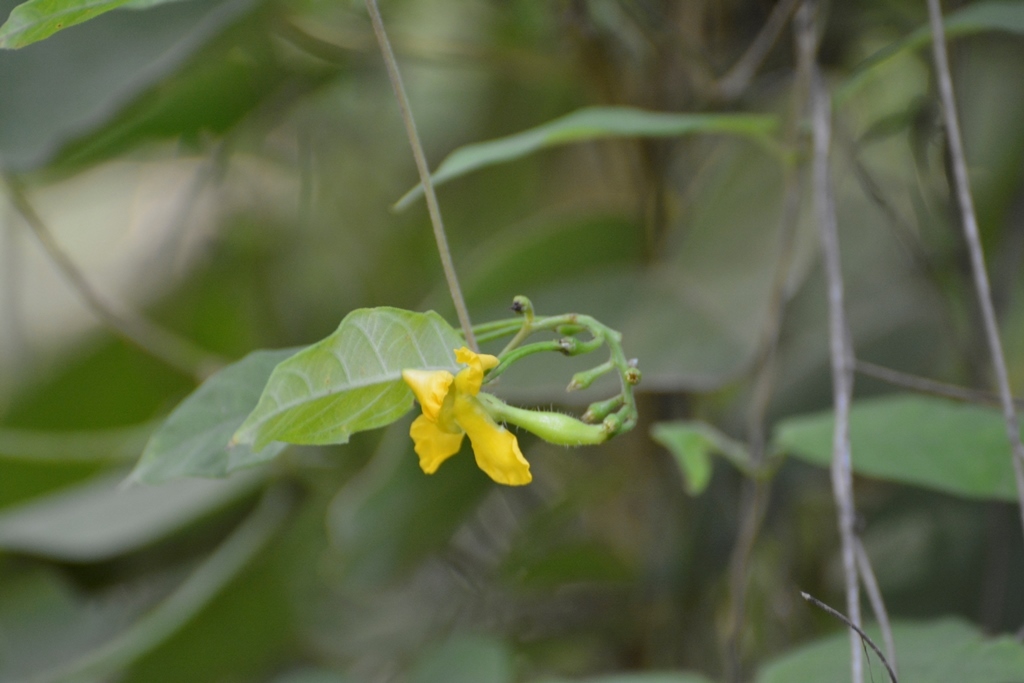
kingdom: Plantae
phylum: Tracheophyta
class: Magnoliopsida
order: Gentianales
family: Apocynaceae
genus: Mandevilla
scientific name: Mandevilla subsessilis
